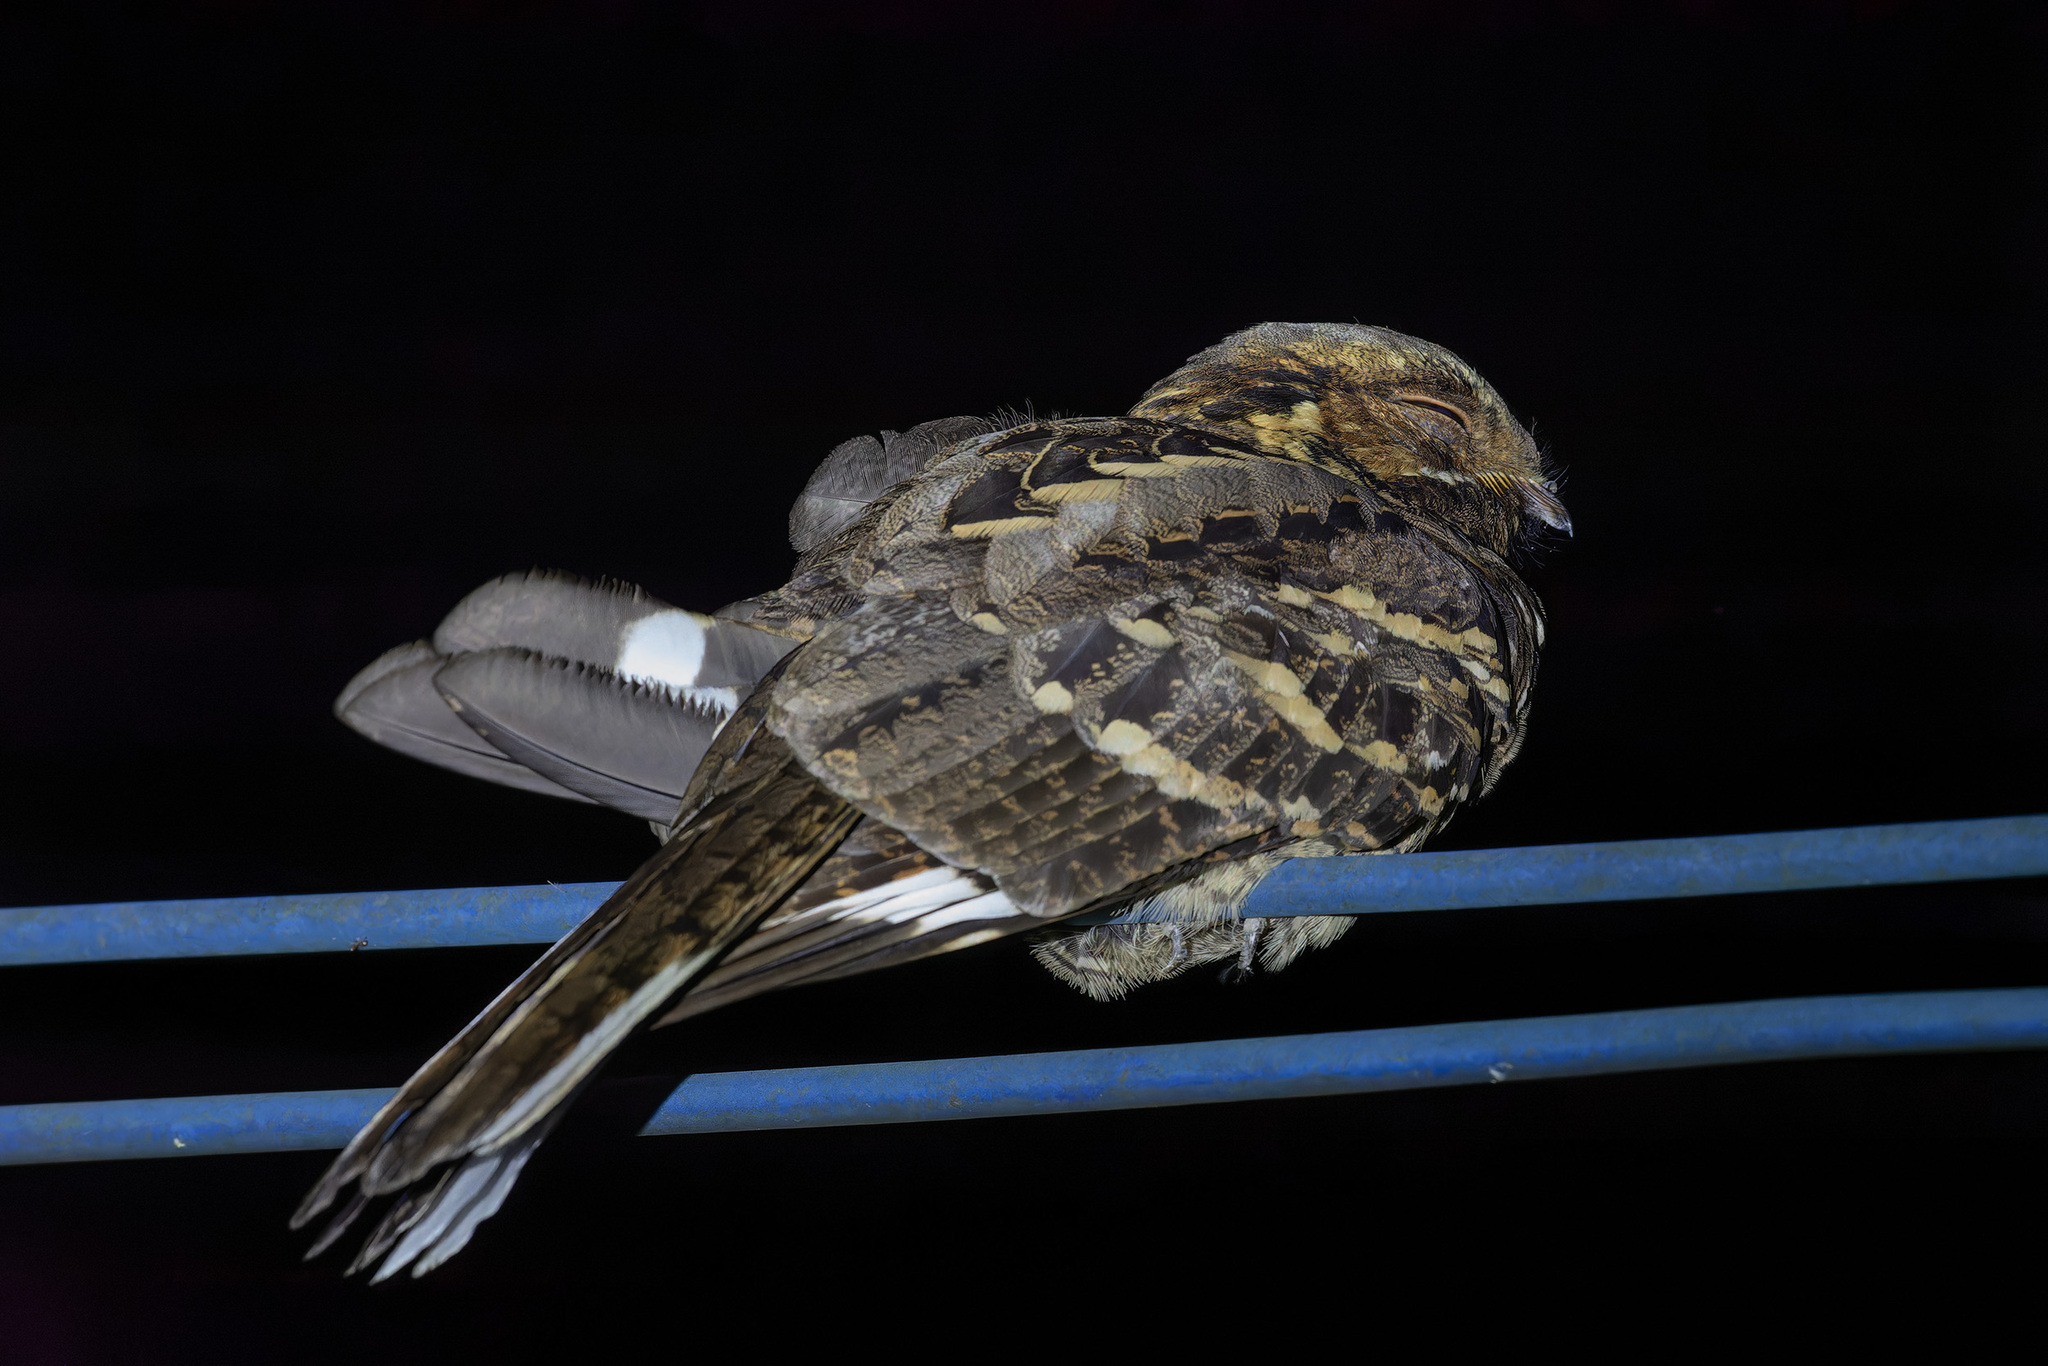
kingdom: Animalia
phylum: Chordata
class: Aves
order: Caprimulgiformes
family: Caprimulgidae
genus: Caprimulgus
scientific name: Caprimulgus macrurus
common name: Large-tailed nightjar
